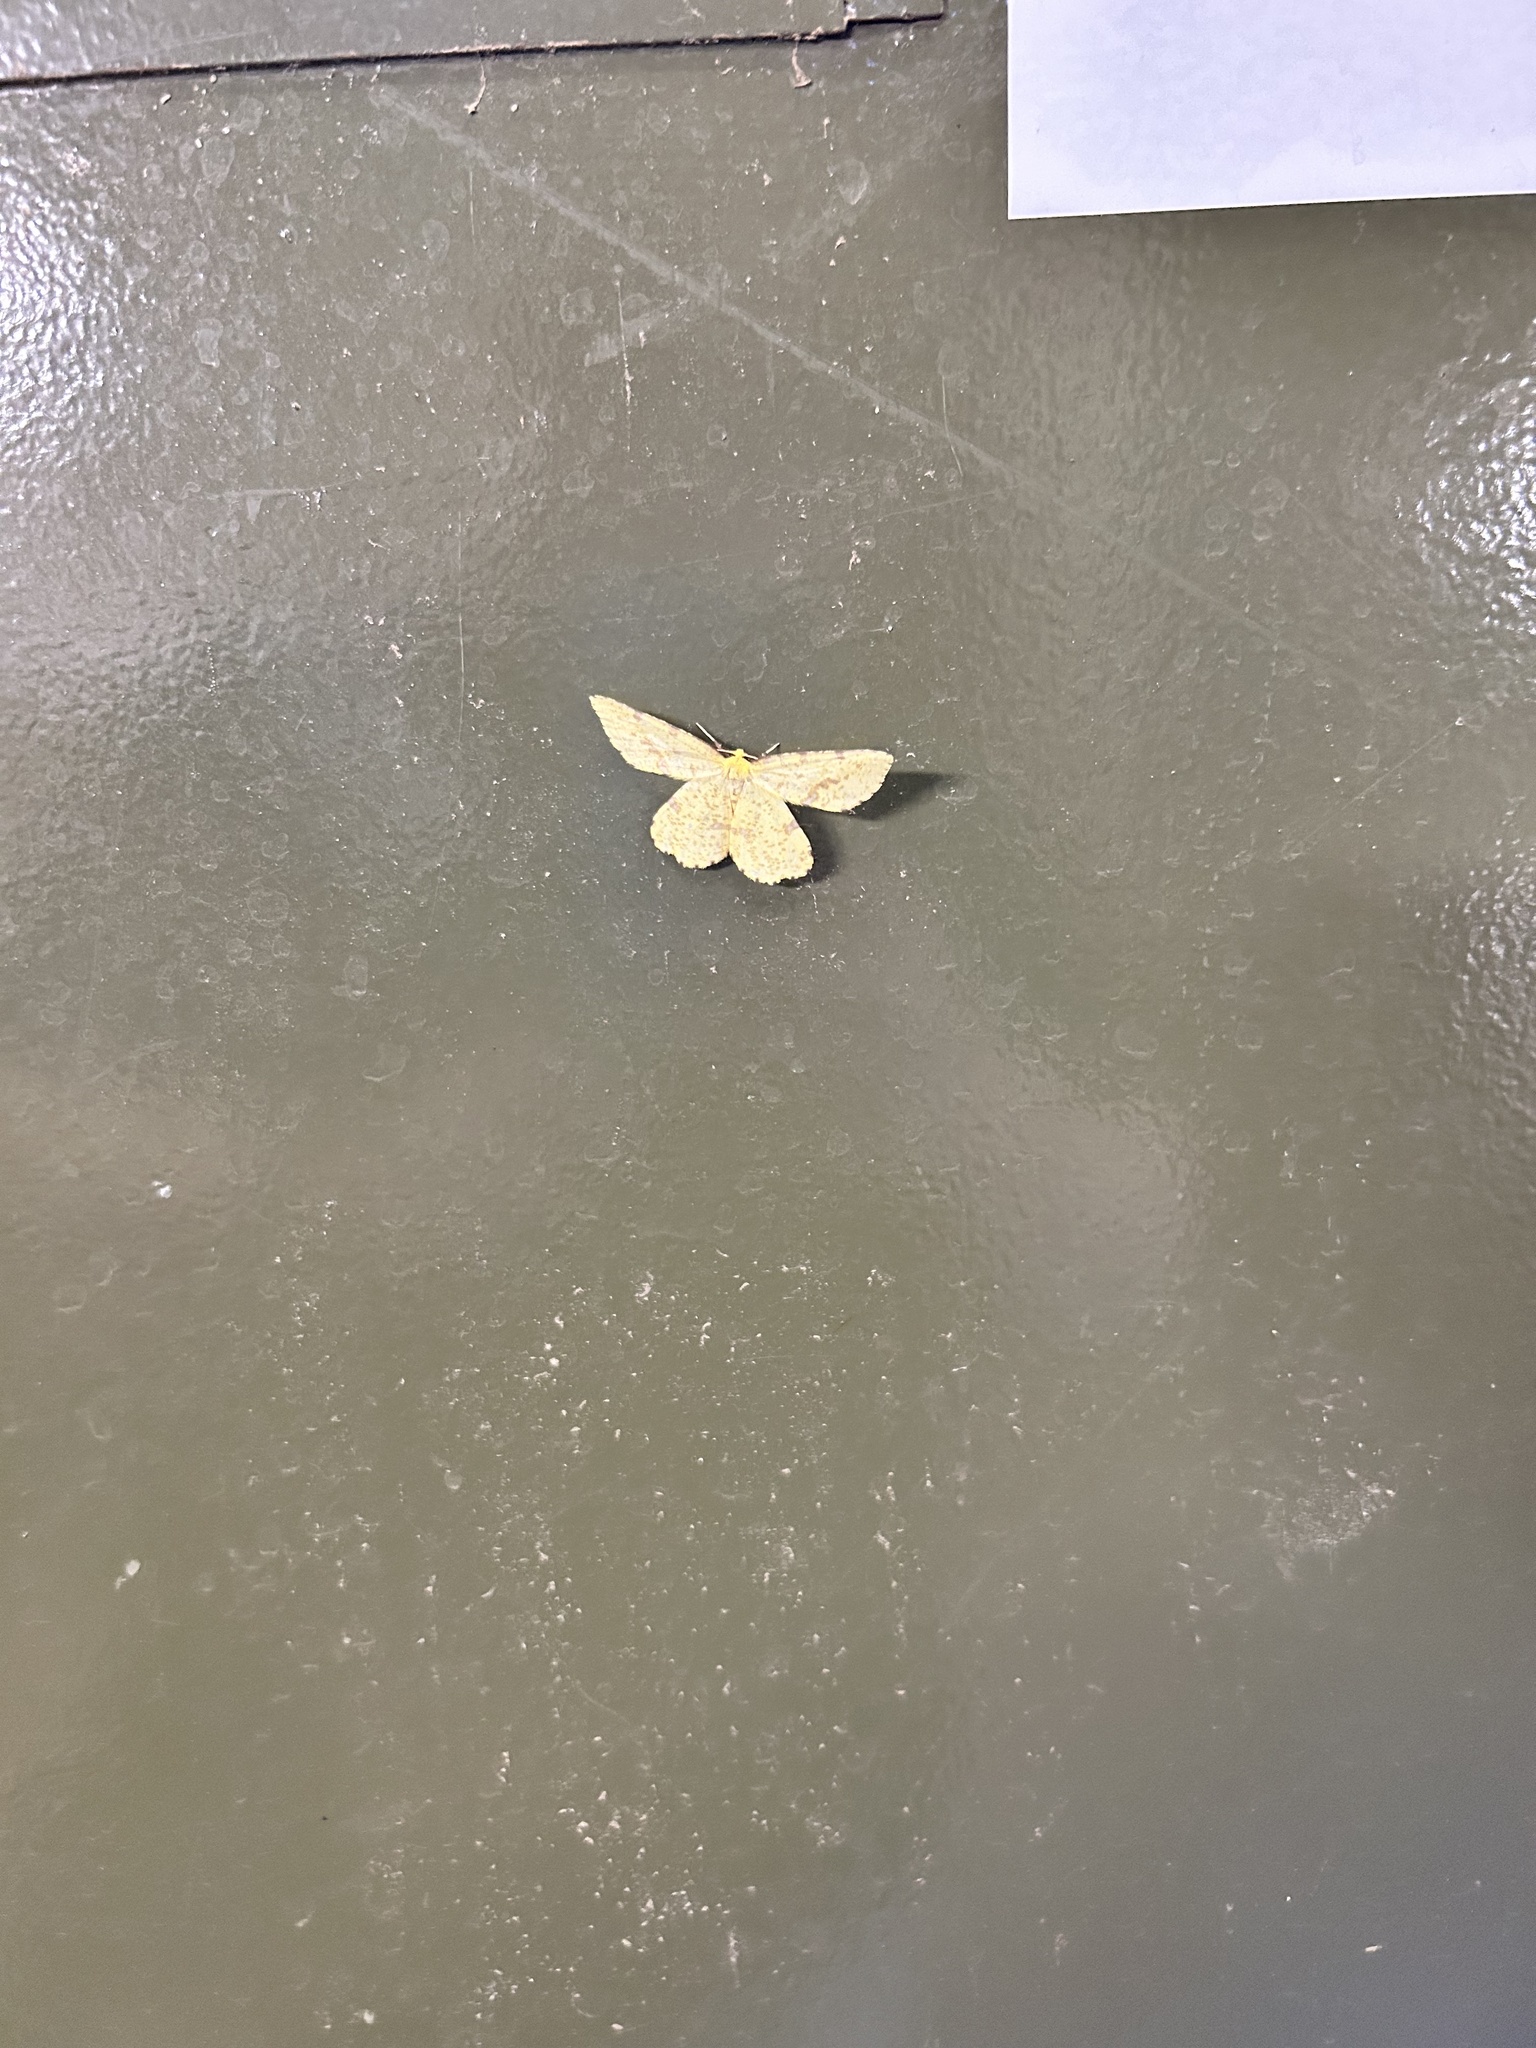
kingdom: Animalia
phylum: Arthropoda
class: Insecta
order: Lepidoptera
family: Geometridae
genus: Xanthotype
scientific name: Xanthotype
